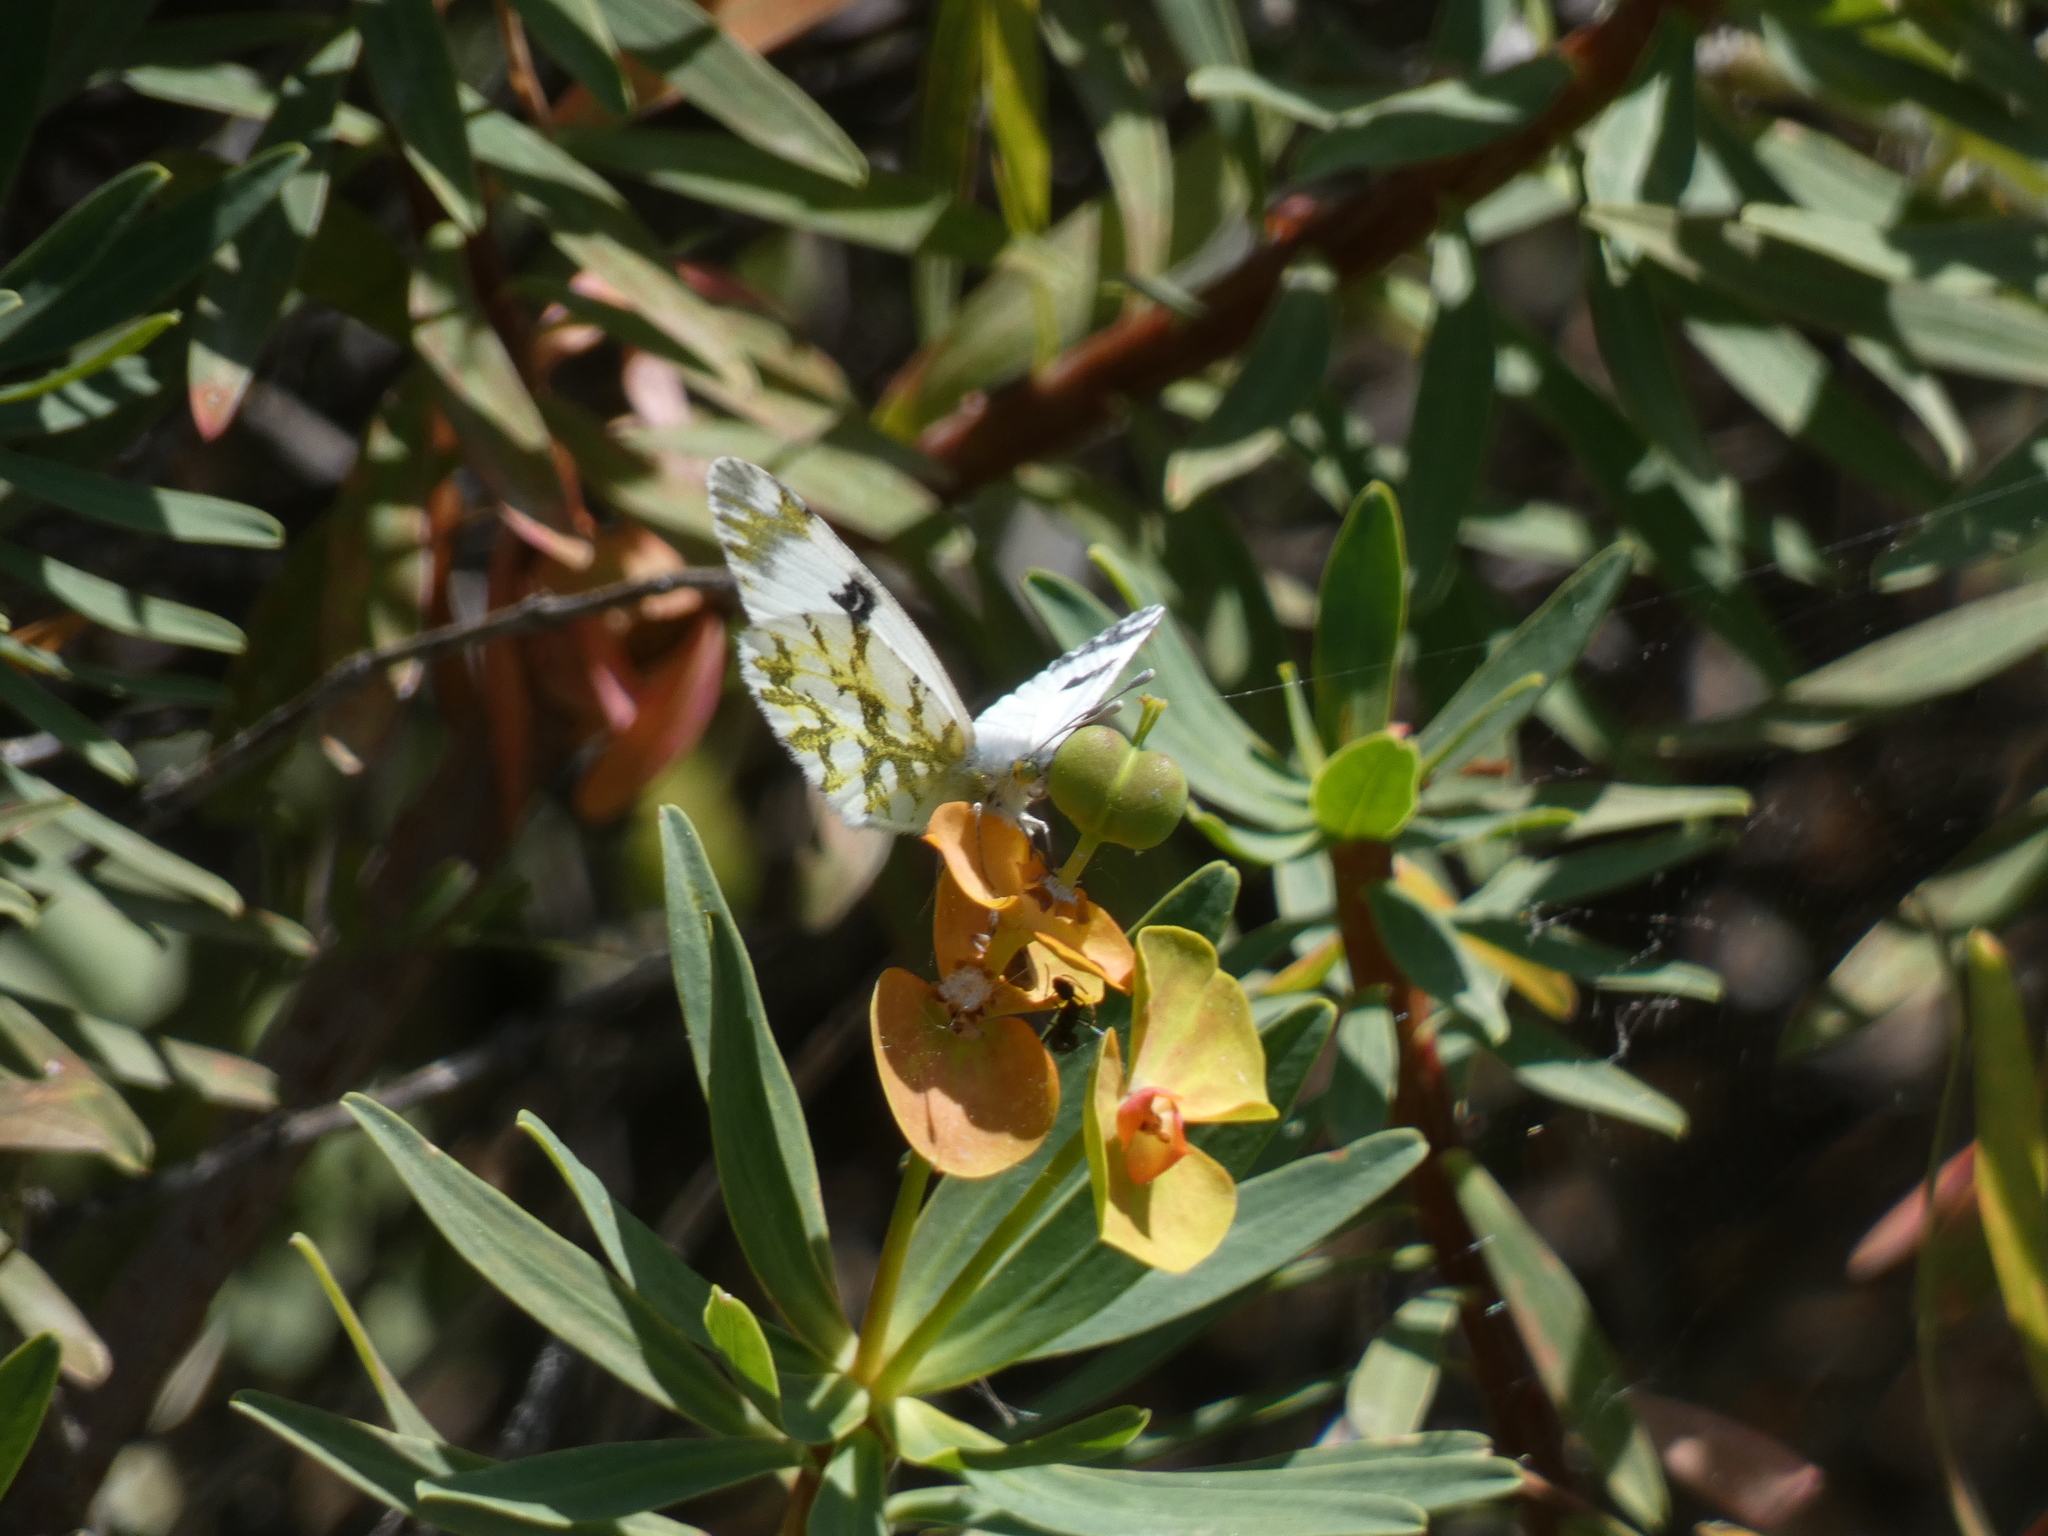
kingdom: Animalia
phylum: Arthropoda
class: Insecta
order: Lepidoptera
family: Pieridae
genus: Euchloe
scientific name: Euchloe ausonia
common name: Eastern dappled white
